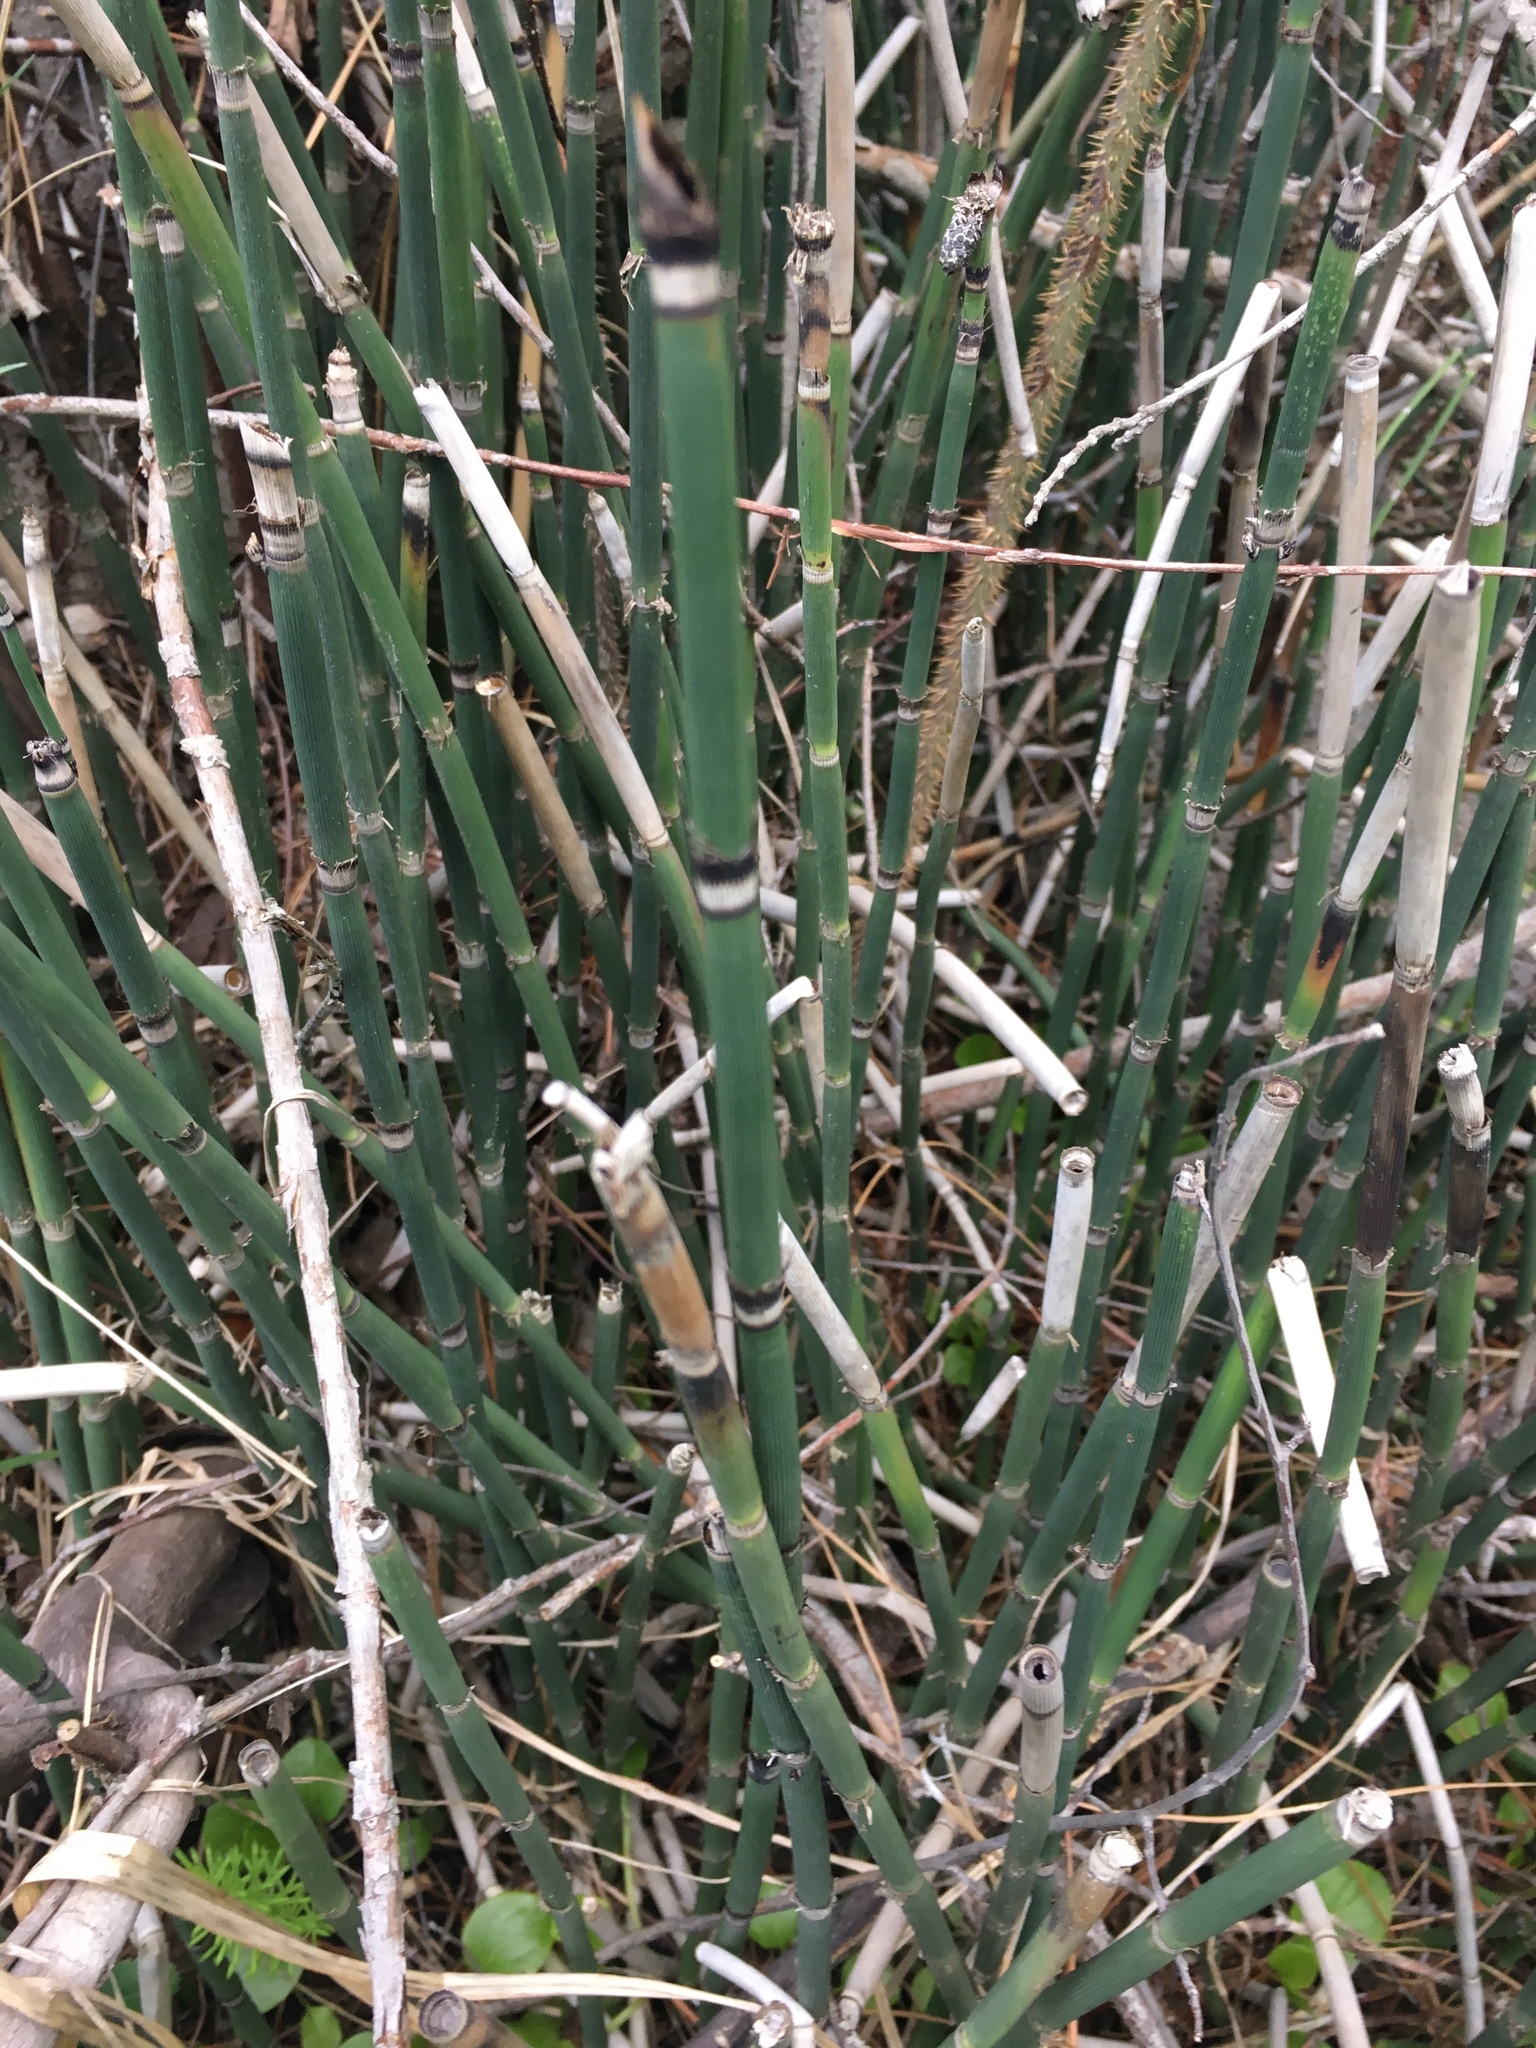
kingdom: Plantae
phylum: Tracheophyta
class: Polypodiopsida
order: Equisetales
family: Equisetaceae
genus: Equisetum
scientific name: Equisetum hyemale
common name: Rough horsetail
